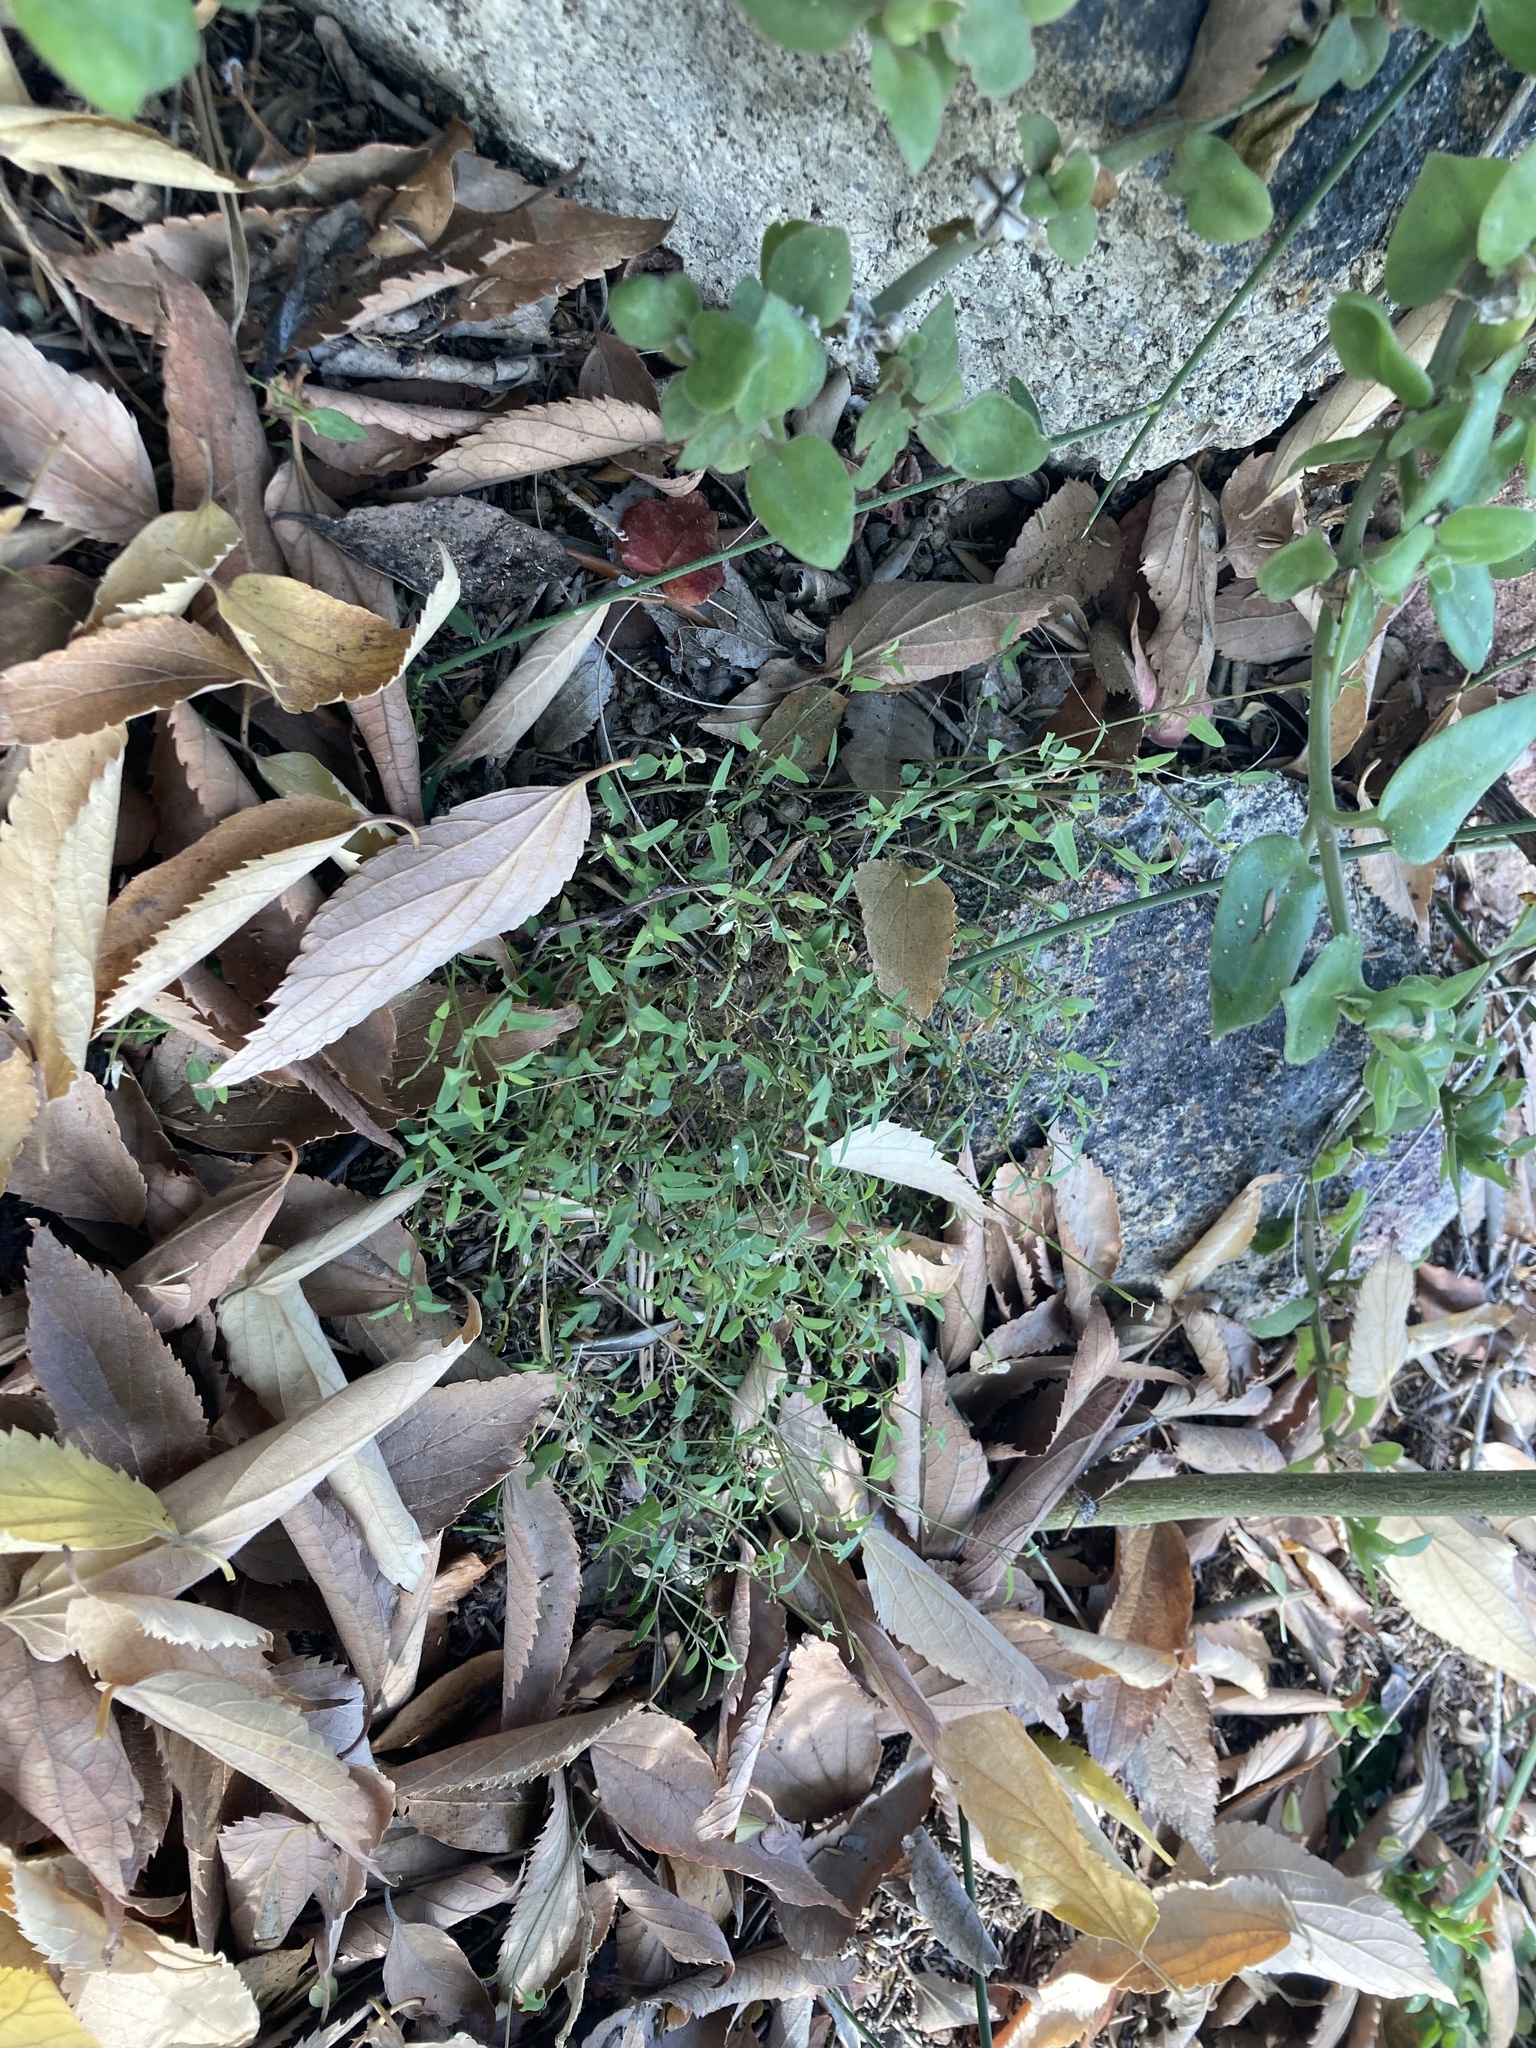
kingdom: Plantae
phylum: Tracheophyta
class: Magnoliopsida
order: Caryophyllales
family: Amaranthaceae
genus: Chenopodium
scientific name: Chenopodium nutans
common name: Climbing-saltbush
